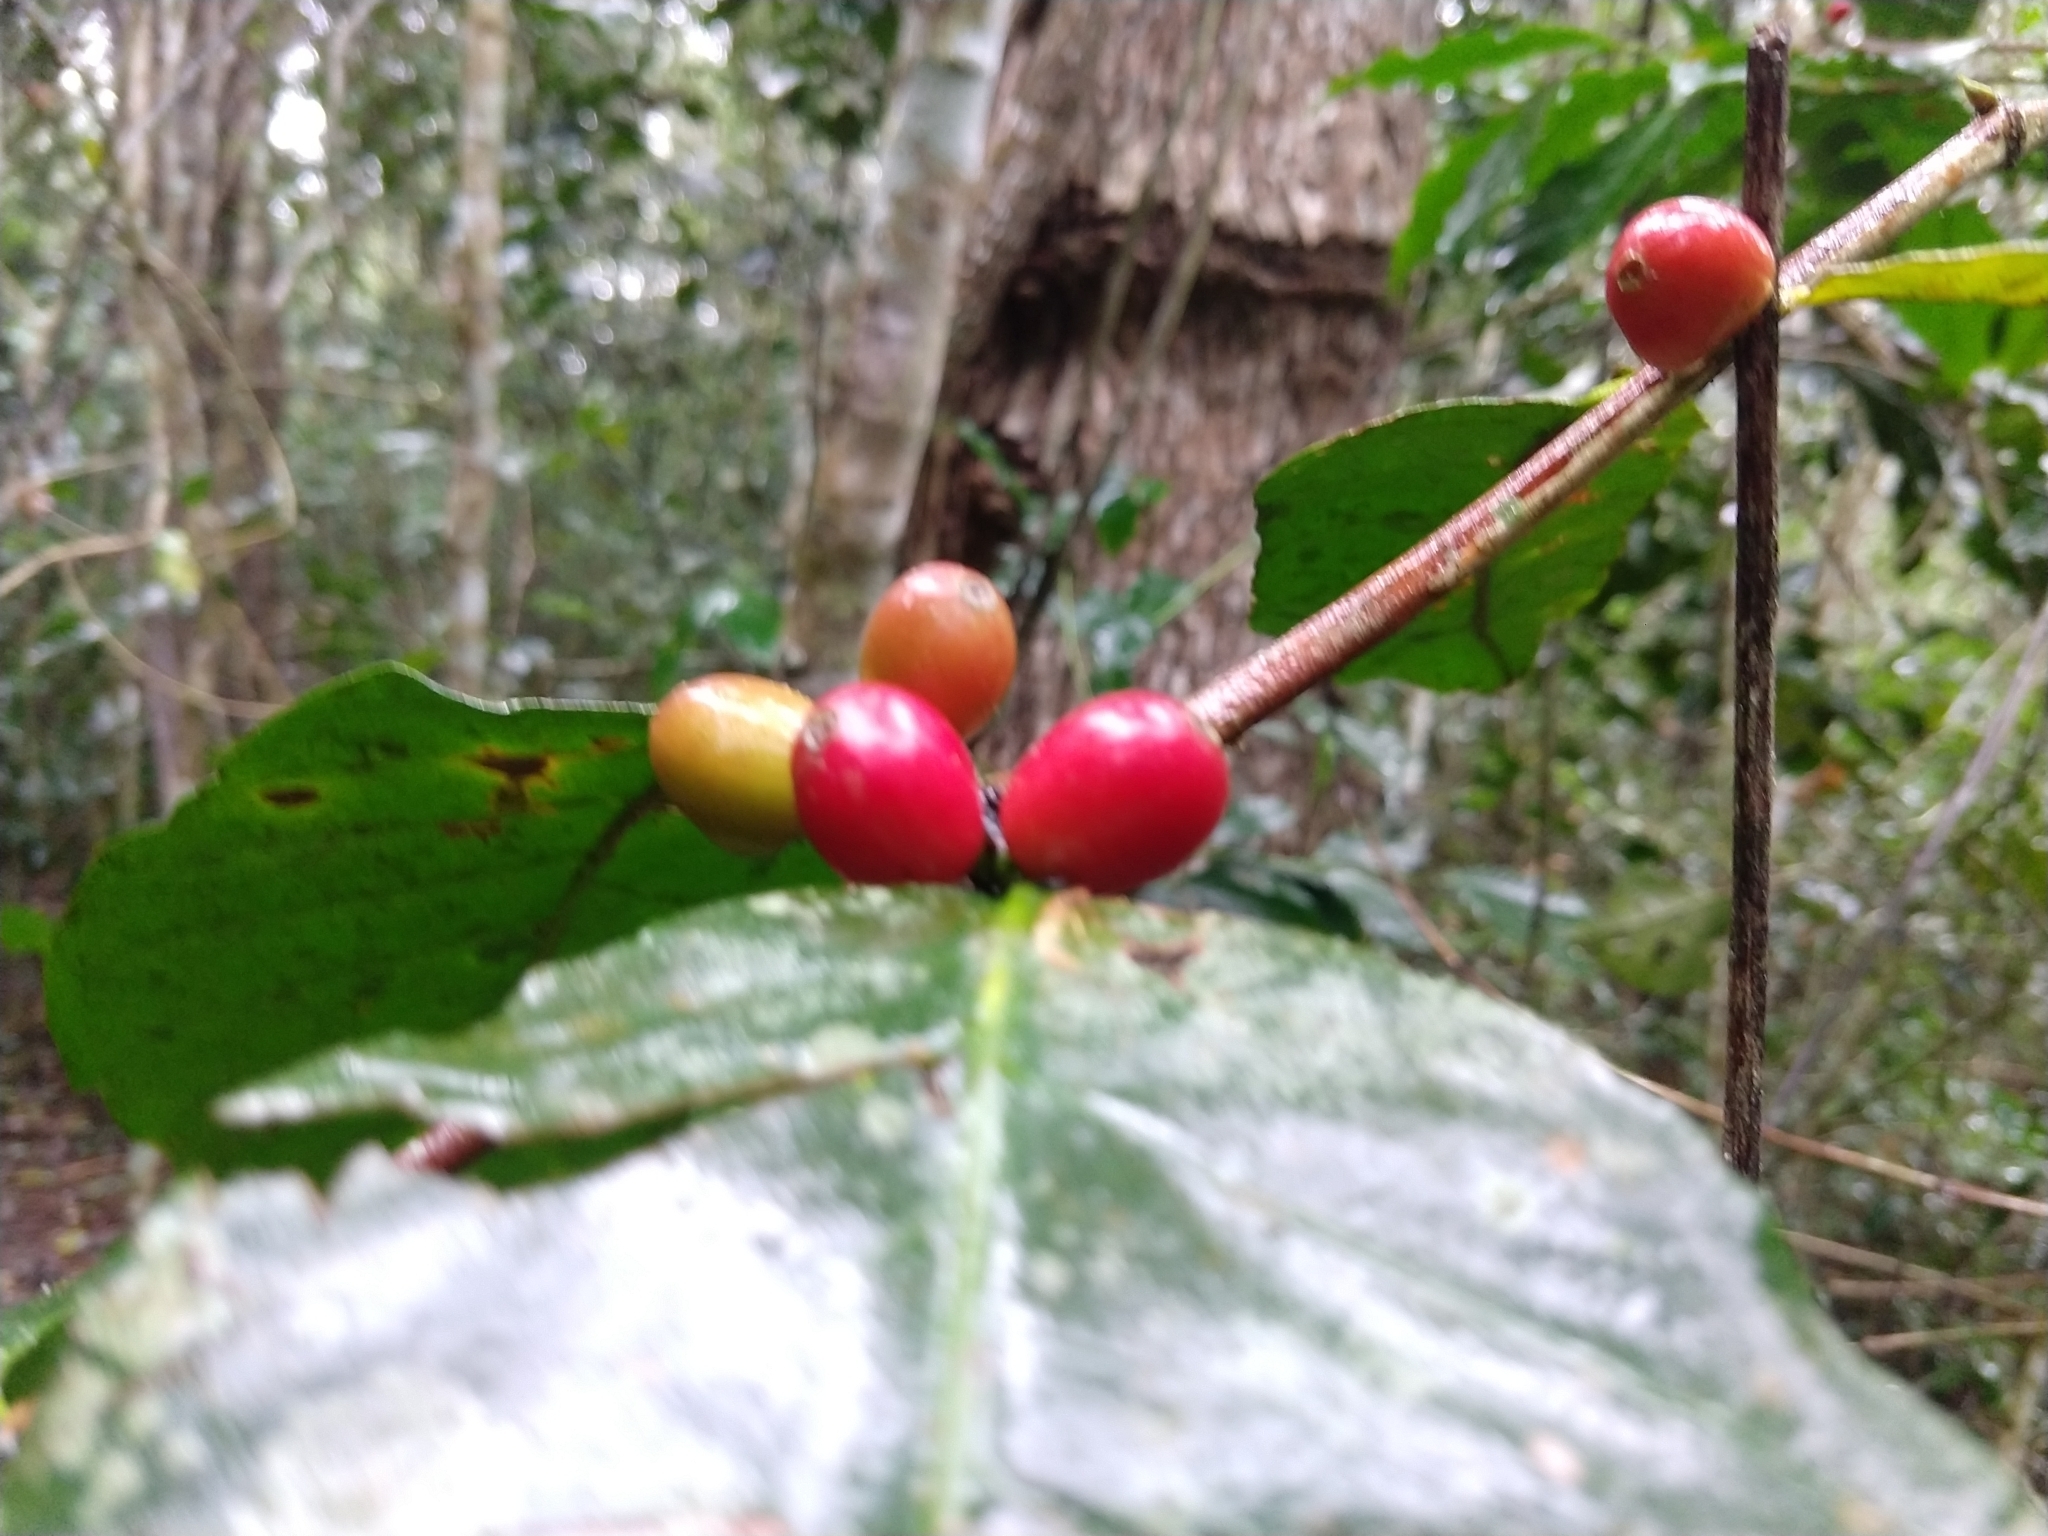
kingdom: Plantae
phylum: Tracheophyta
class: Magnoliopsida
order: Gentianales
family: Rubiaceae
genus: Coffea
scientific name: Coffea arabica
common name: Coffee
